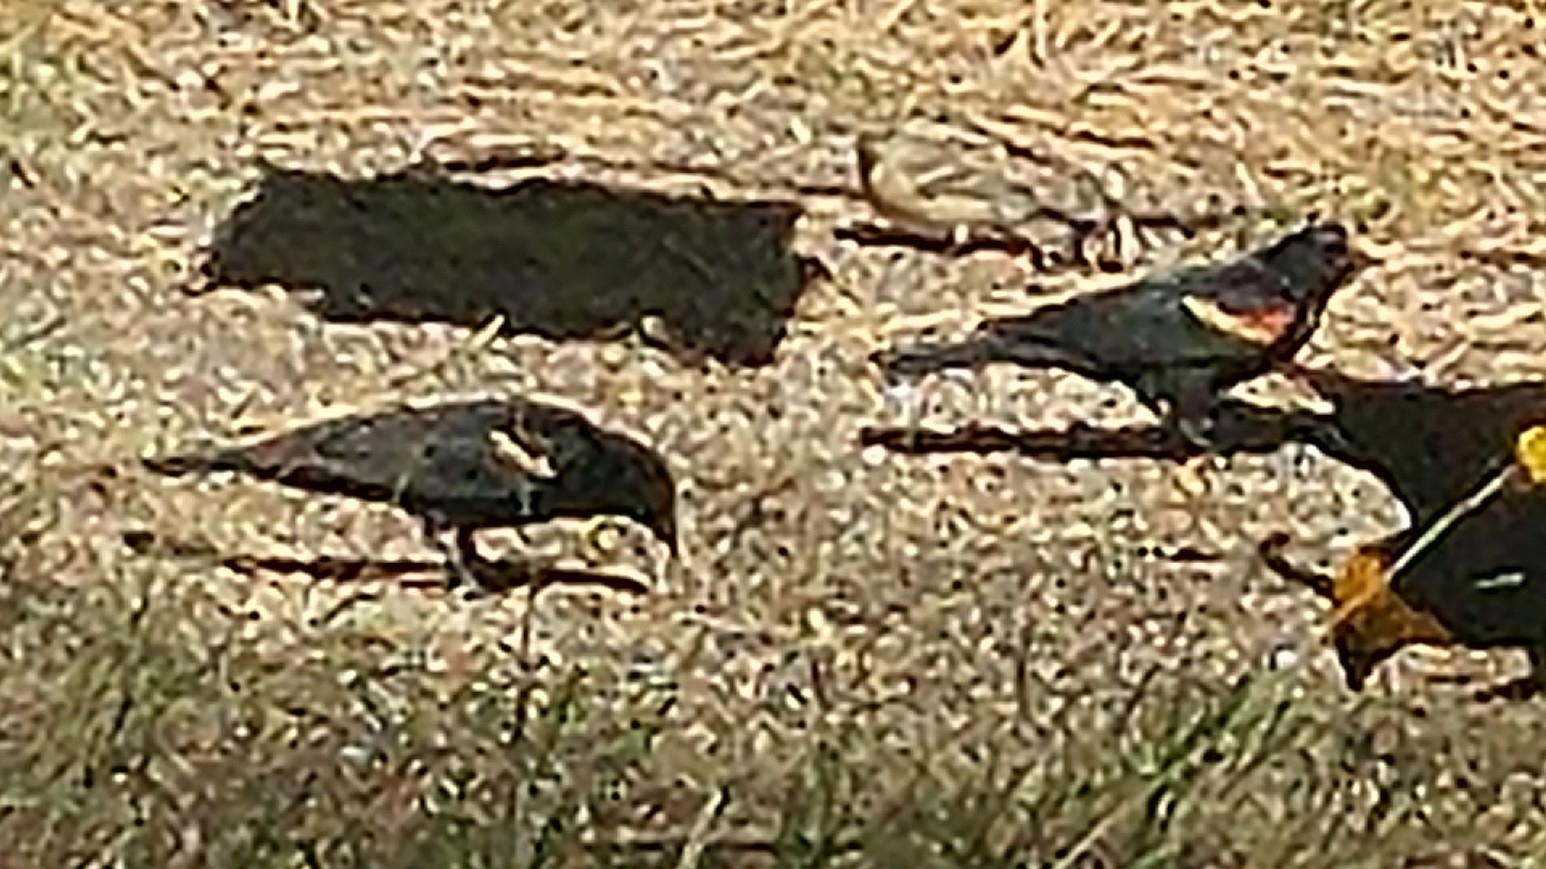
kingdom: Animalia
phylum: Chordata
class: Aves
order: Passeriformes
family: Icteridae
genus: Agelaius
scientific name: Agelaius phoeniceus
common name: Red-winged blackbird
